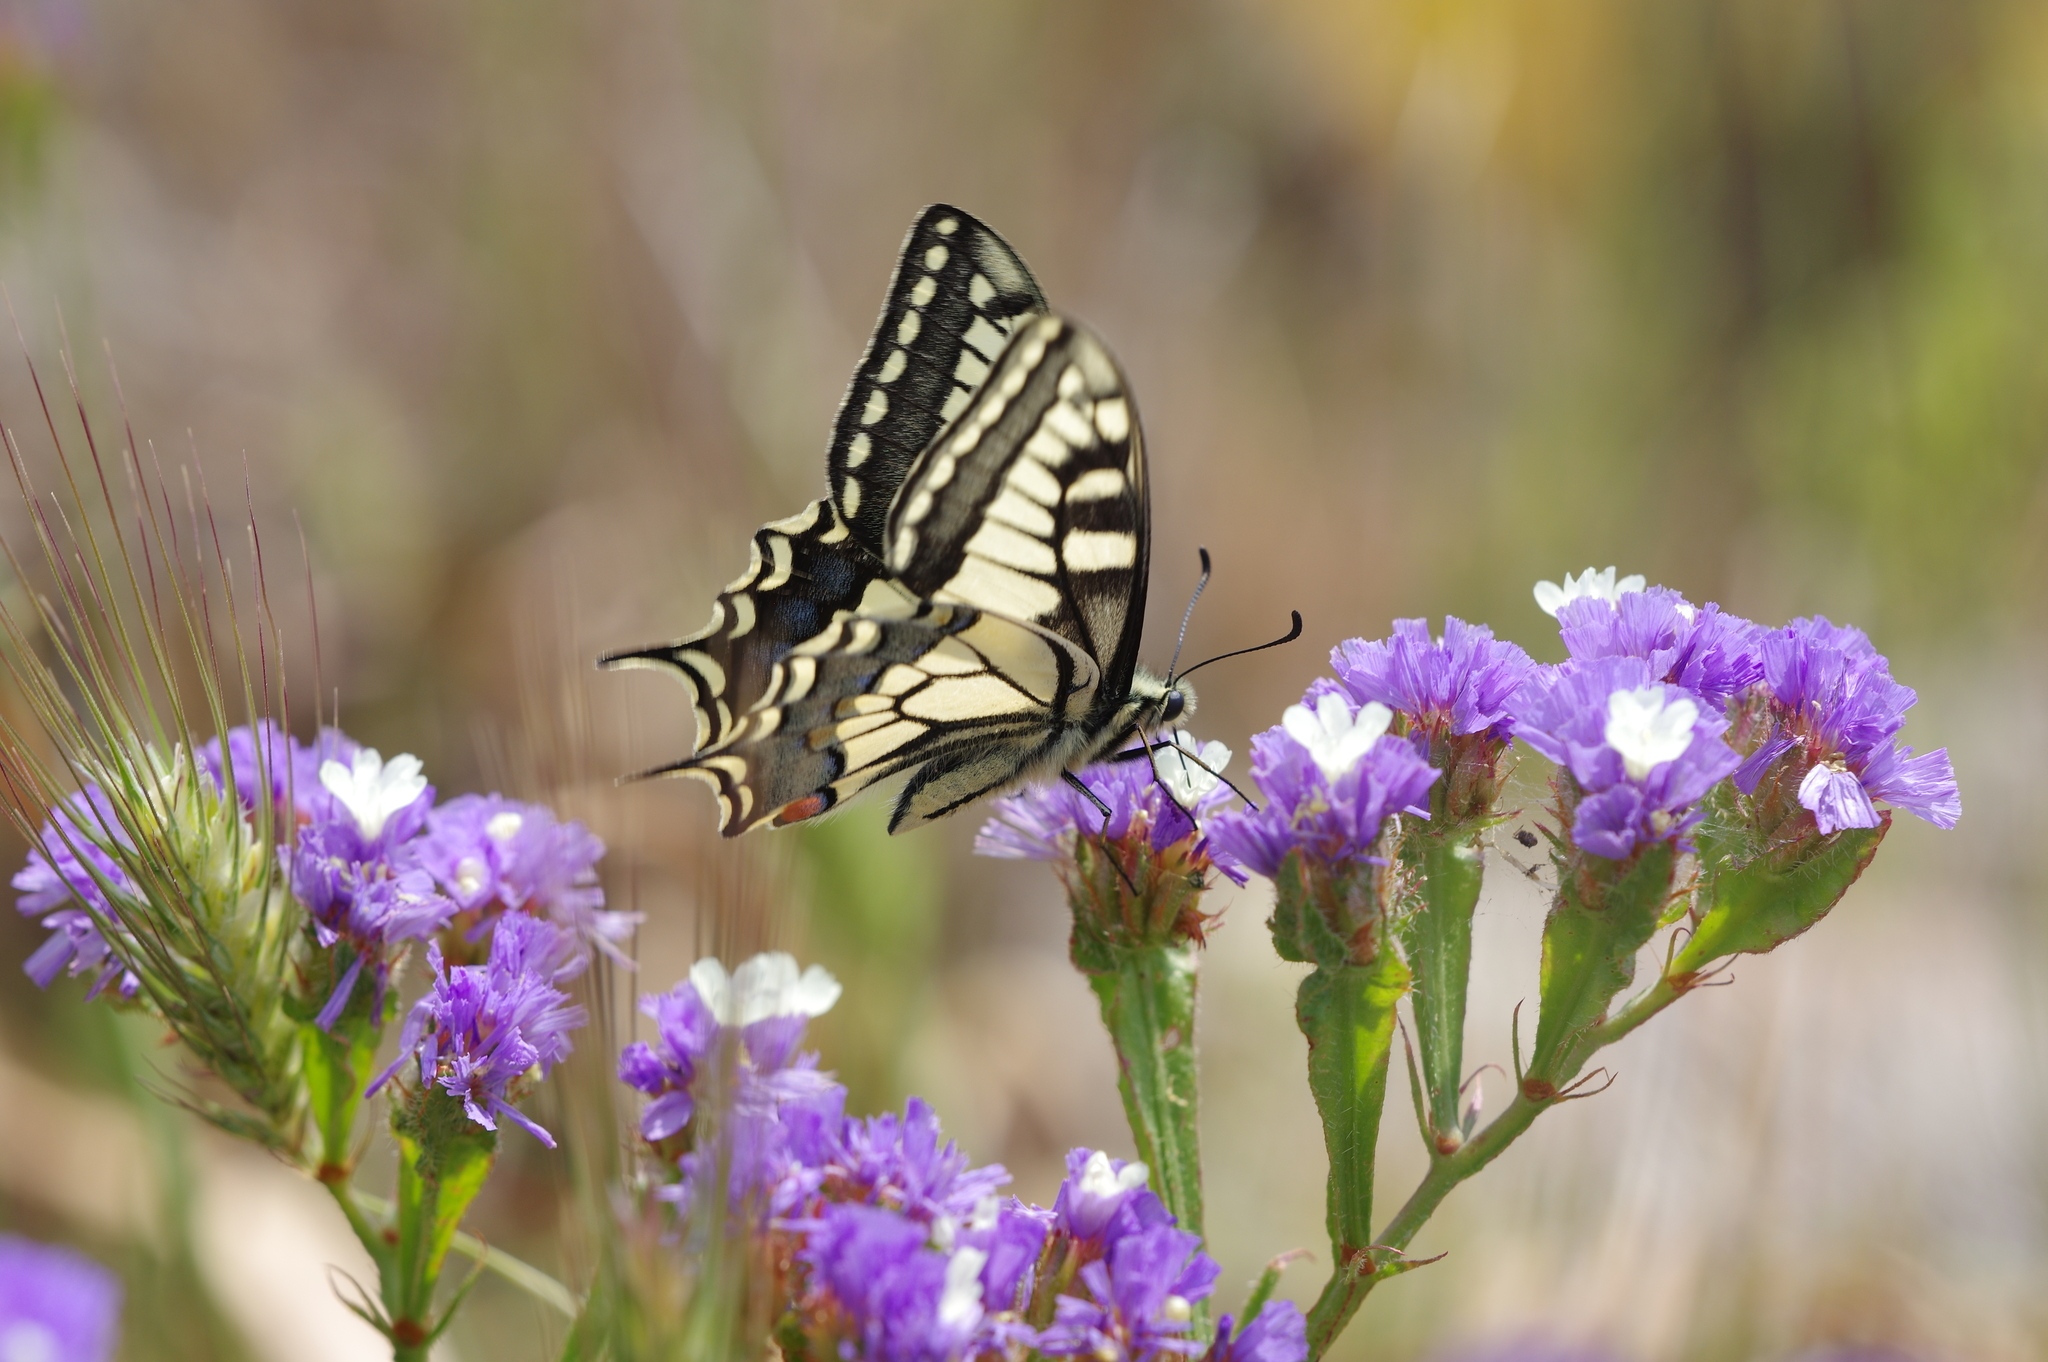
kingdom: Animalia
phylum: Arthropoda
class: Insecta
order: Lepidoptera
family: Papilionidae
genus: Papilio
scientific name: Papilio machaon
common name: Swallowtail
